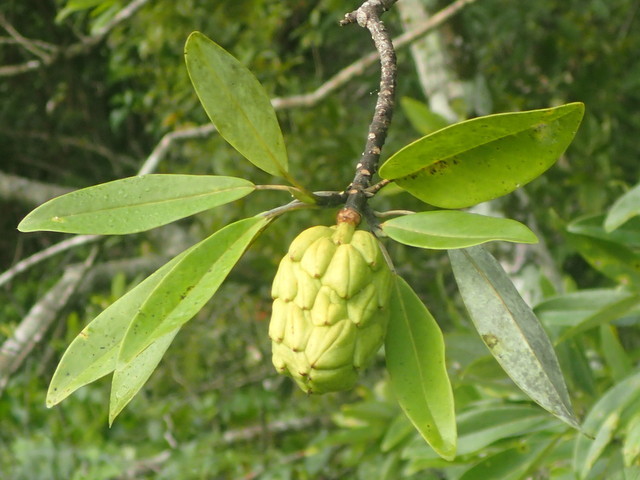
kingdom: Plantae
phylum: Tracheophyta
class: Magnoliopsida
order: Magnoliales
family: Magnoliaceae
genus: Magnolia
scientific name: Magnolia virginiana
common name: Swamp bay
